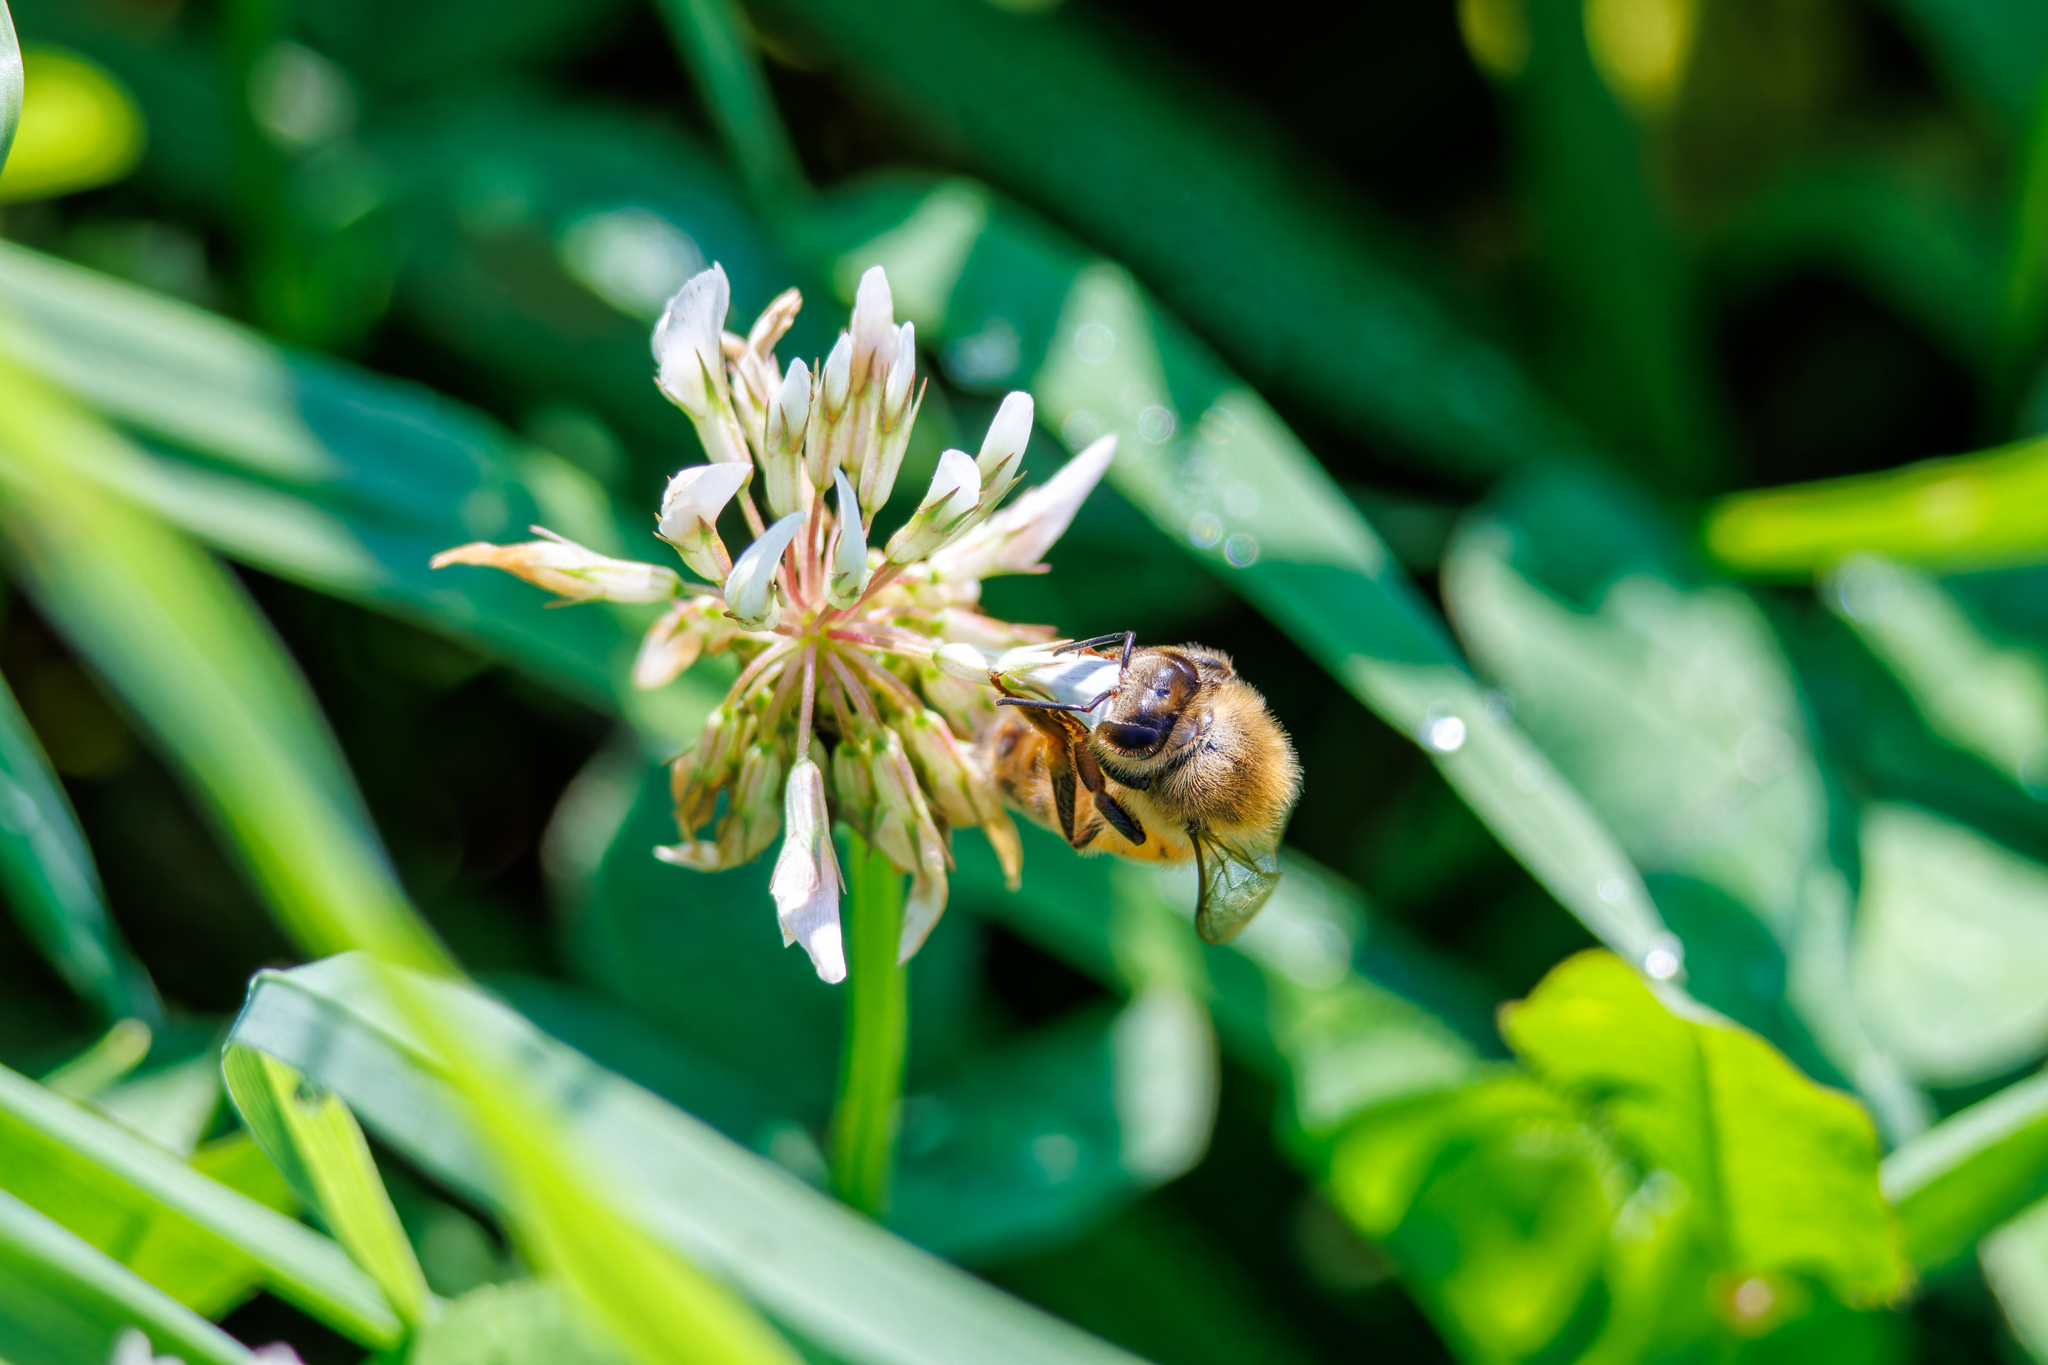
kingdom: Animalia
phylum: Arthropoda
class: Insecta
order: Hymenoptera
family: Apidae
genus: Apis
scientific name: Apis mellifera
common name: Honey bee
